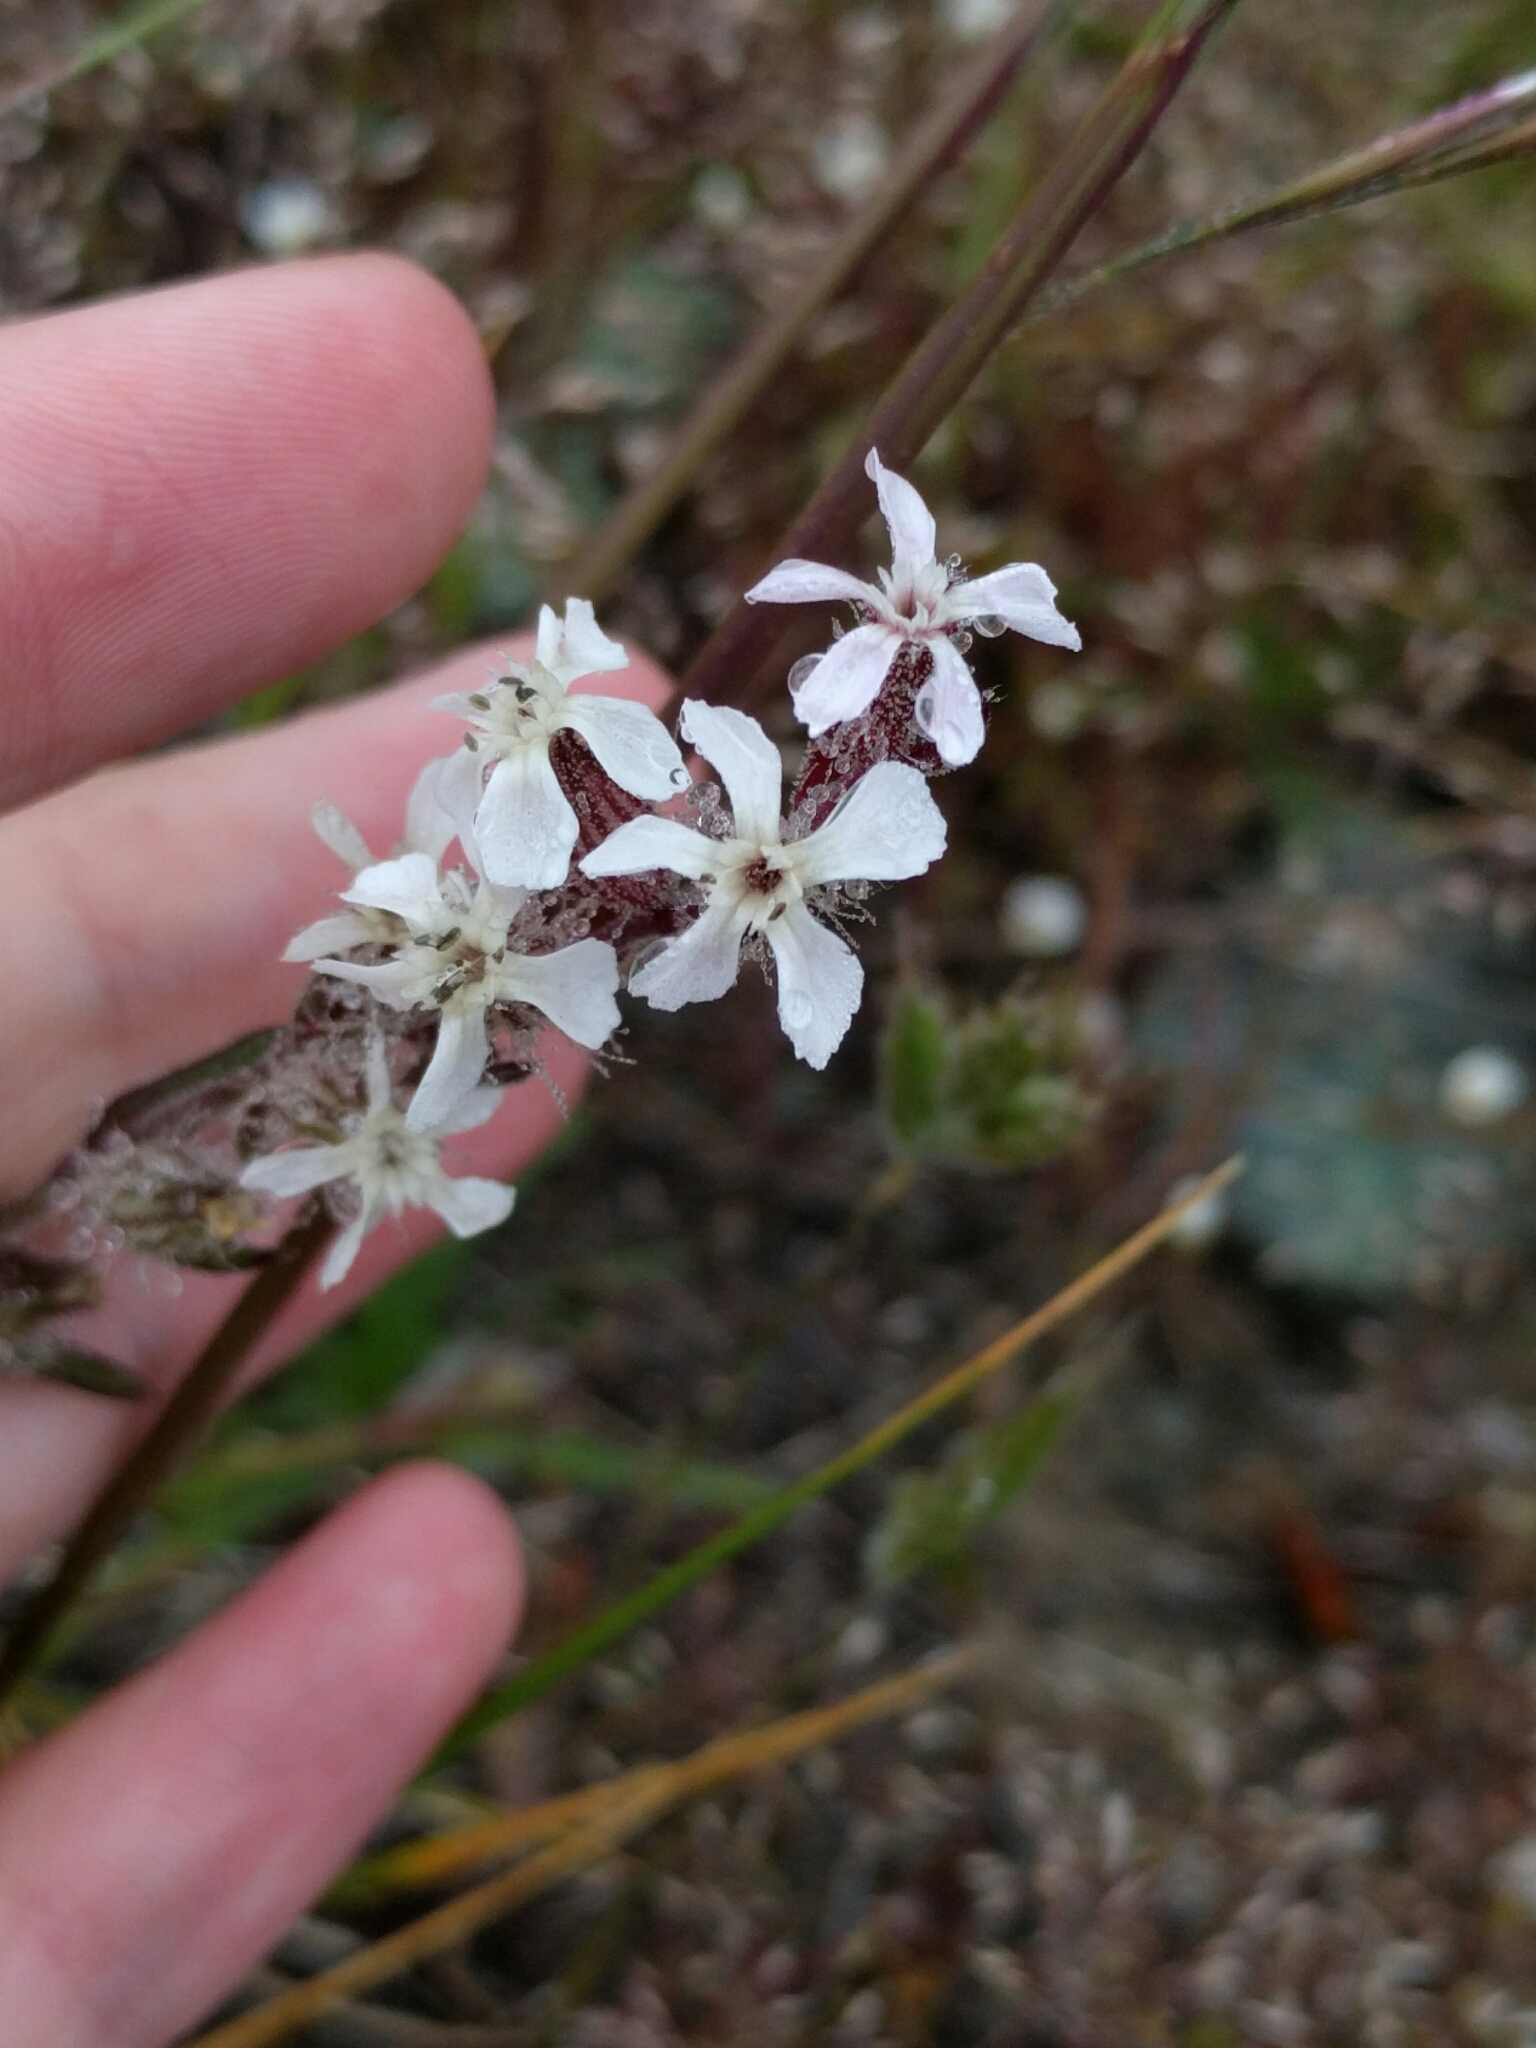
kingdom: Plantae
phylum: Tracheophyta
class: Magnoliopsida
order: Caryophyllales
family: Caryophyllaceae
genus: Silene
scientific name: Silene gallica
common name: Small-flowered catchfly
